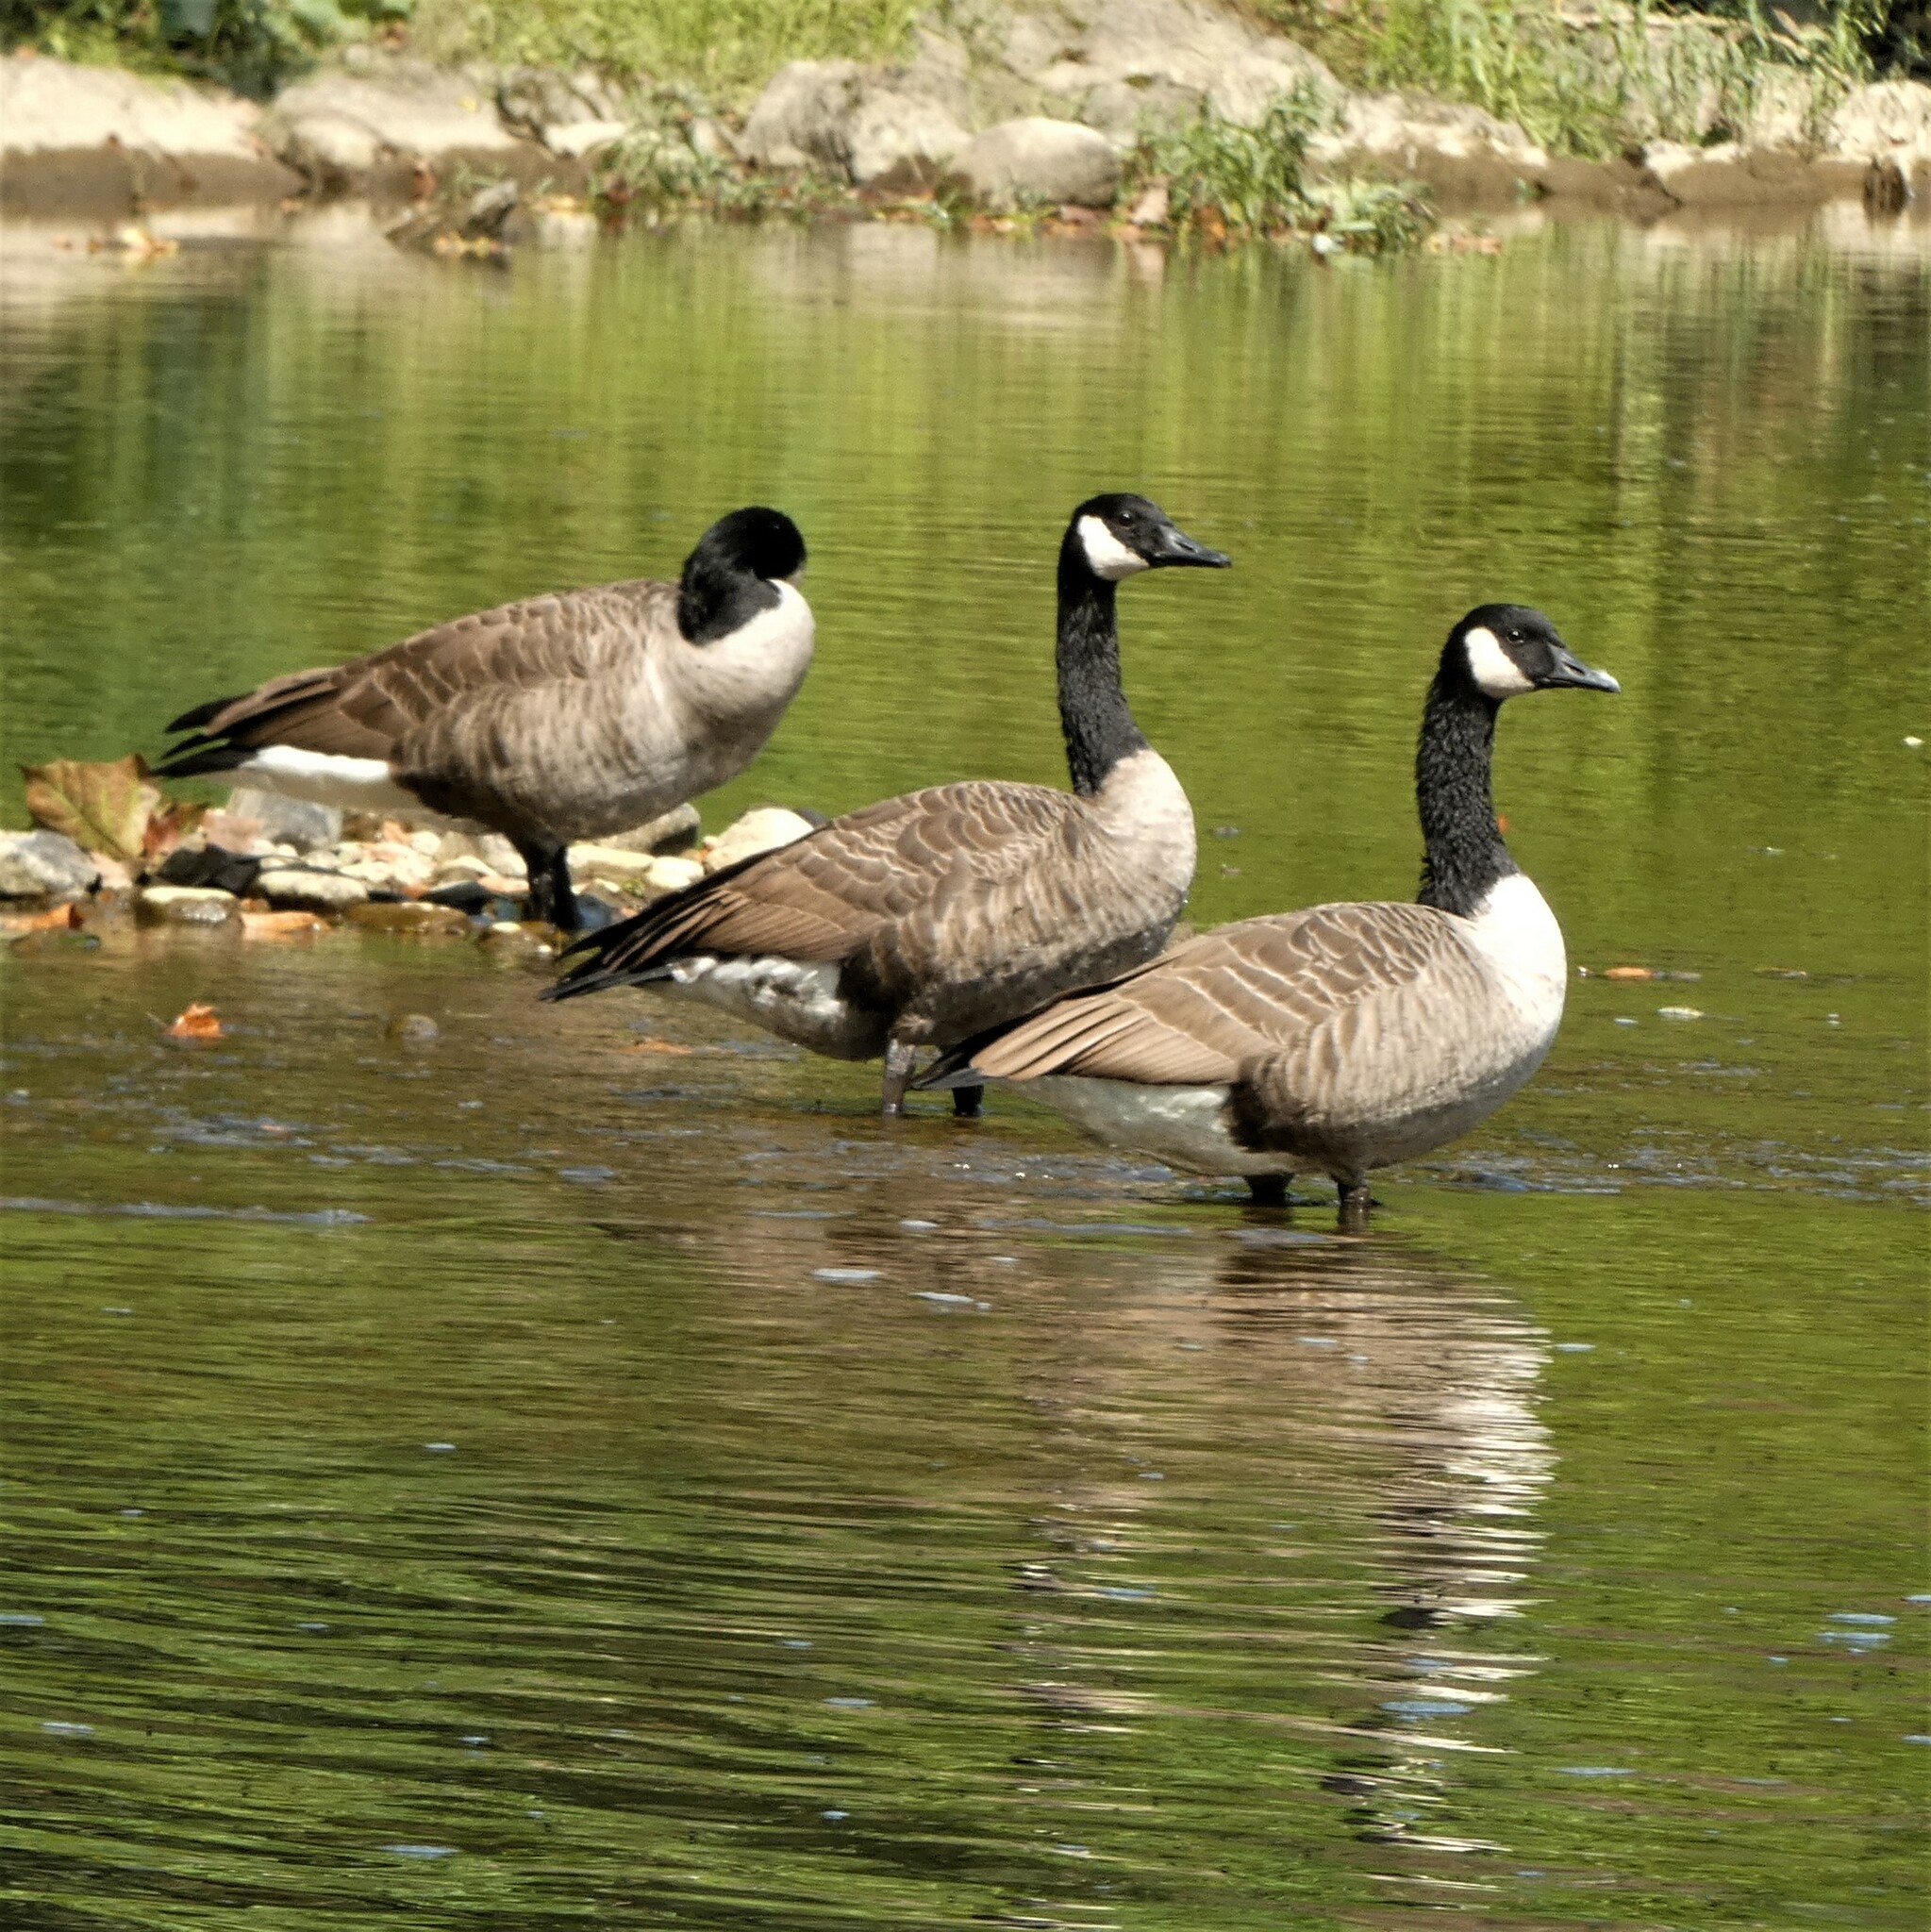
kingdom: Animalia
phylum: Chordata
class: Aves
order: Anseriformes
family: Anatidae
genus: Branta
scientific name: Branta canadensis
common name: Canada goose
